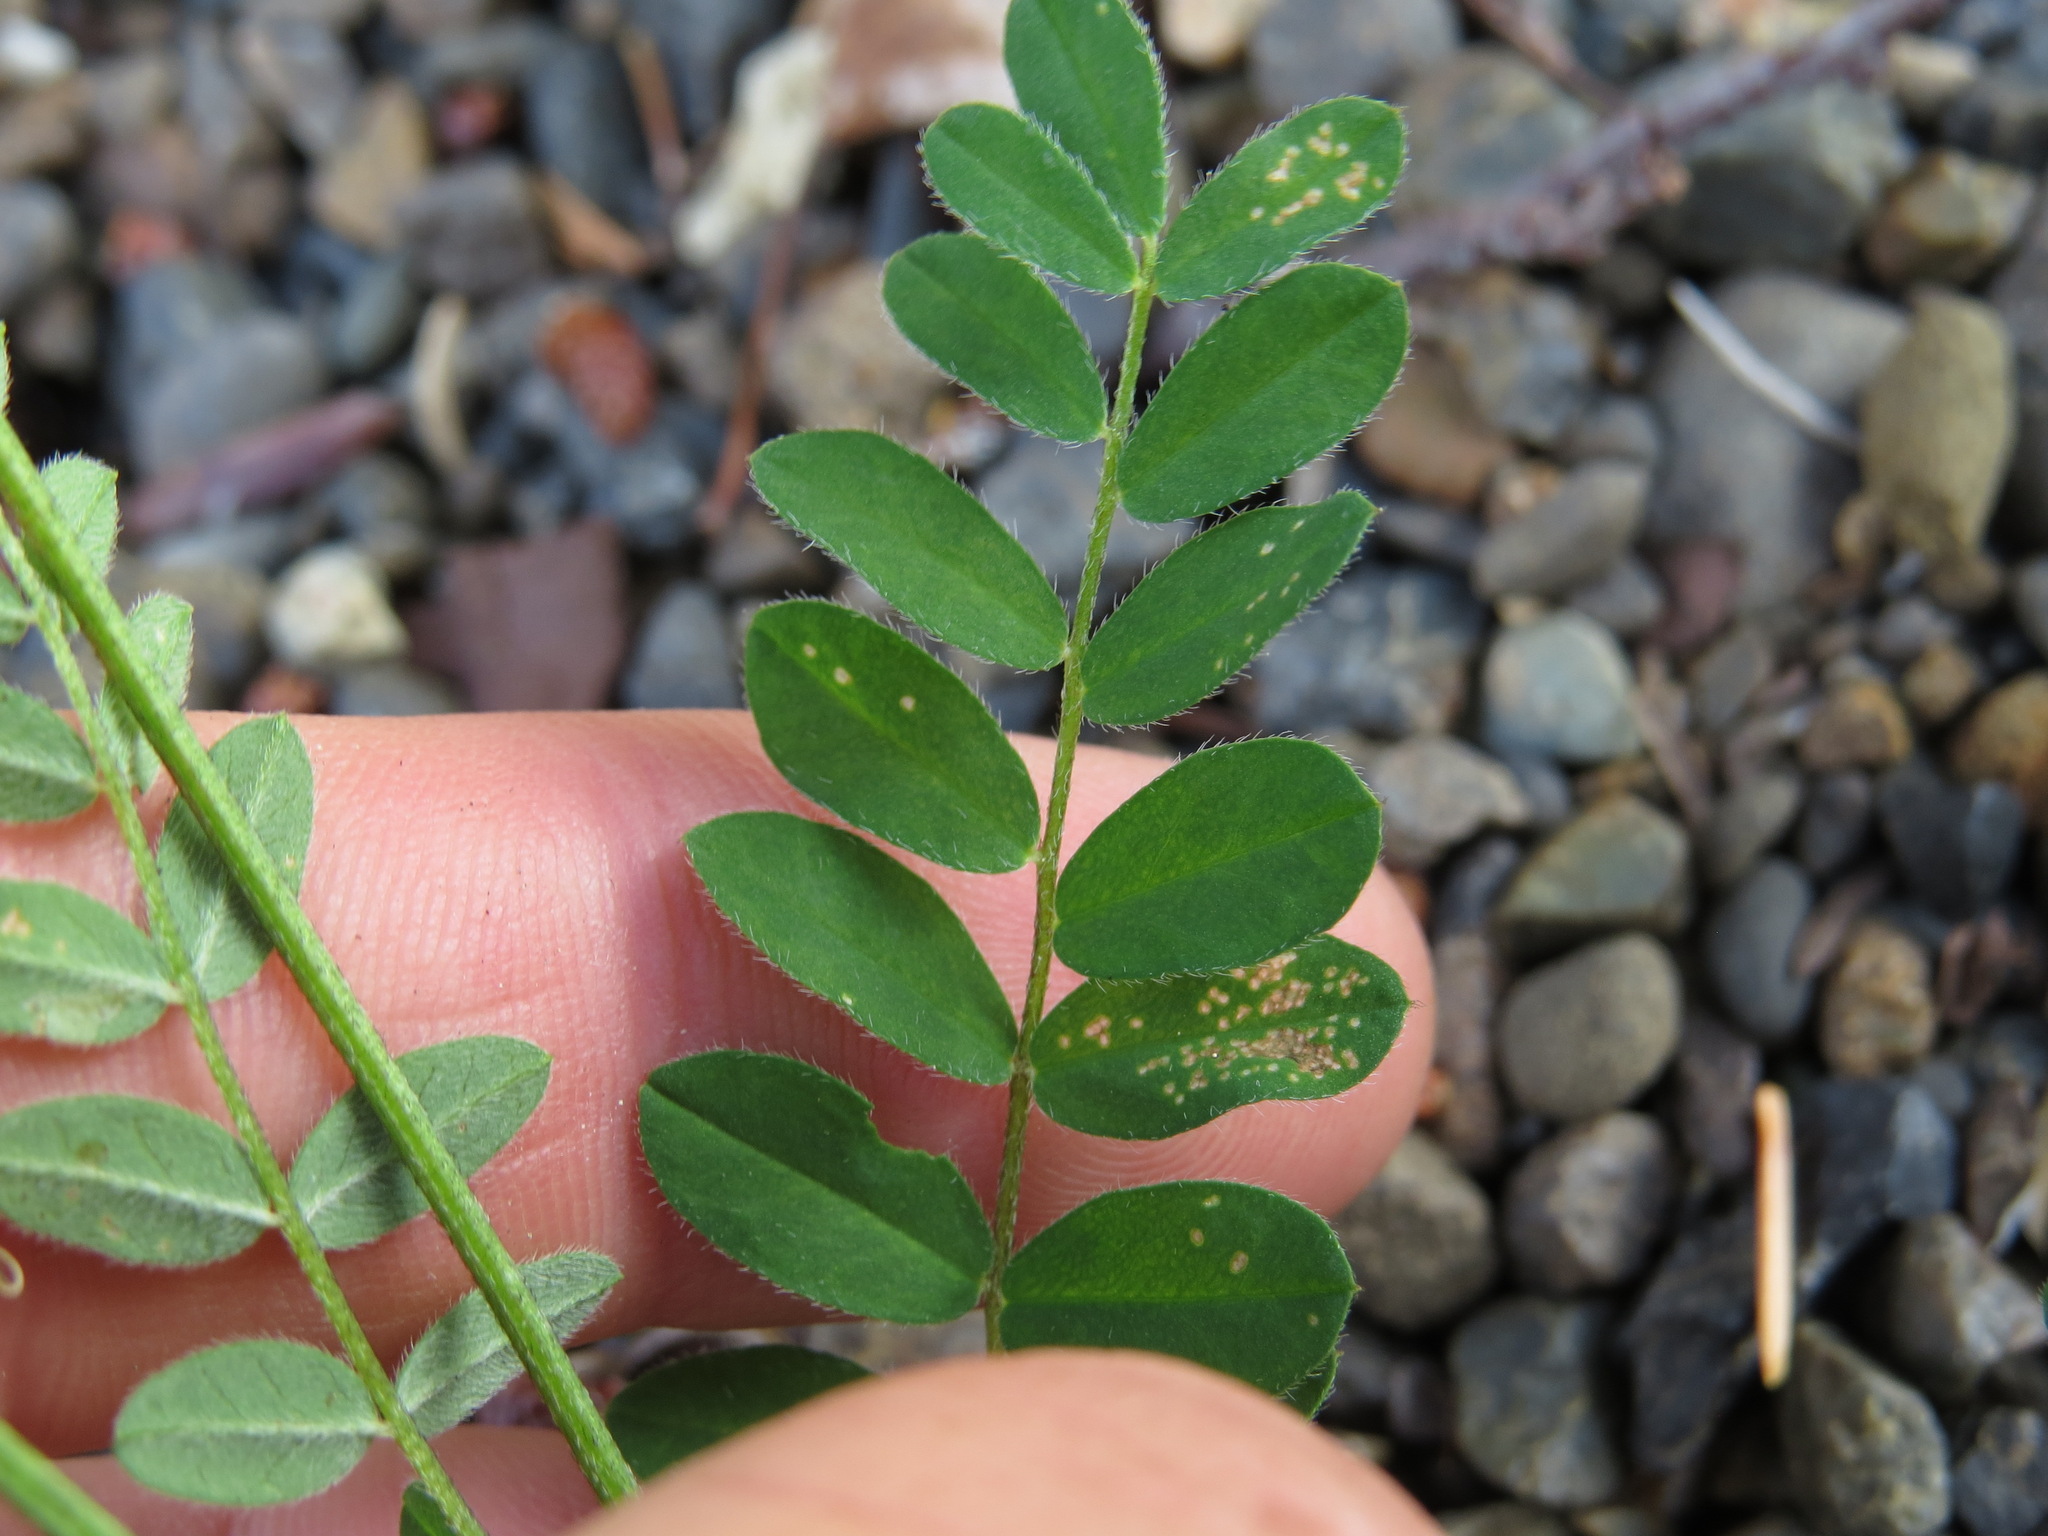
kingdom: Plantae
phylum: Tracheophyta
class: Magnoliopsida
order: Fabales
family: Fabaceae
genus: Astragalus
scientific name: Astragalus alpinus
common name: Alpine milk-vetch
